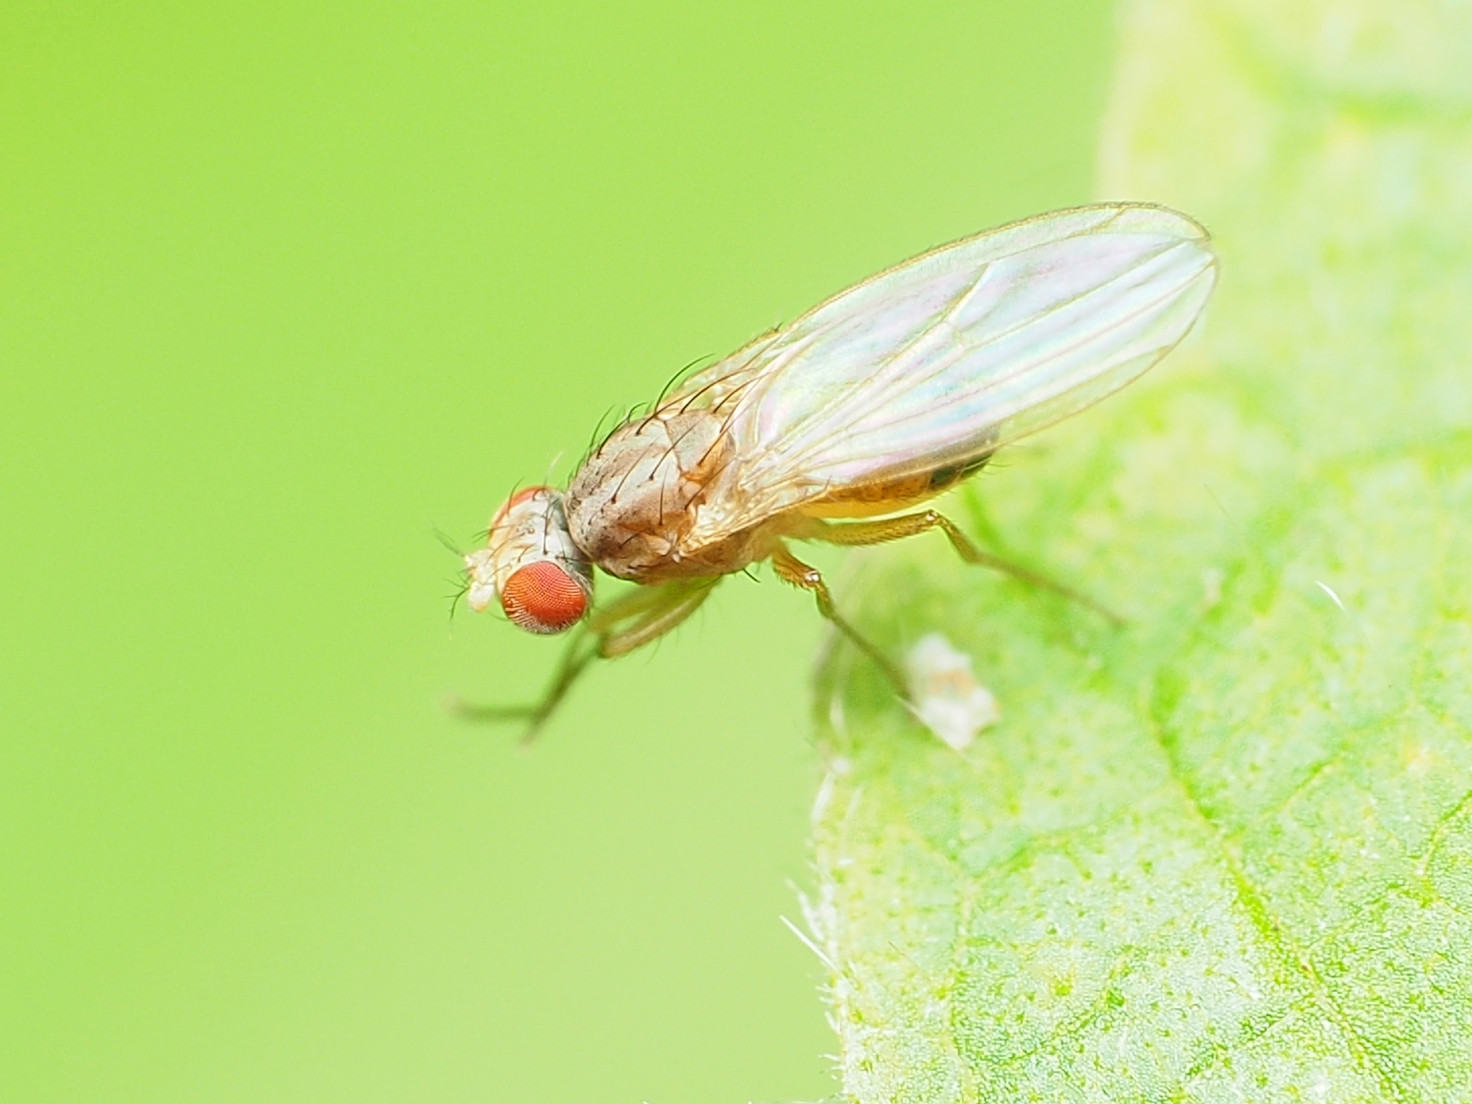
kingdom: Animalia
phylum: Arthropoda
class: Insecta
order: Diptera
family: Drosophilidae
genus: Scaptomyza
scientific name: Scaptomyza pallida
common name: Pomace fly
